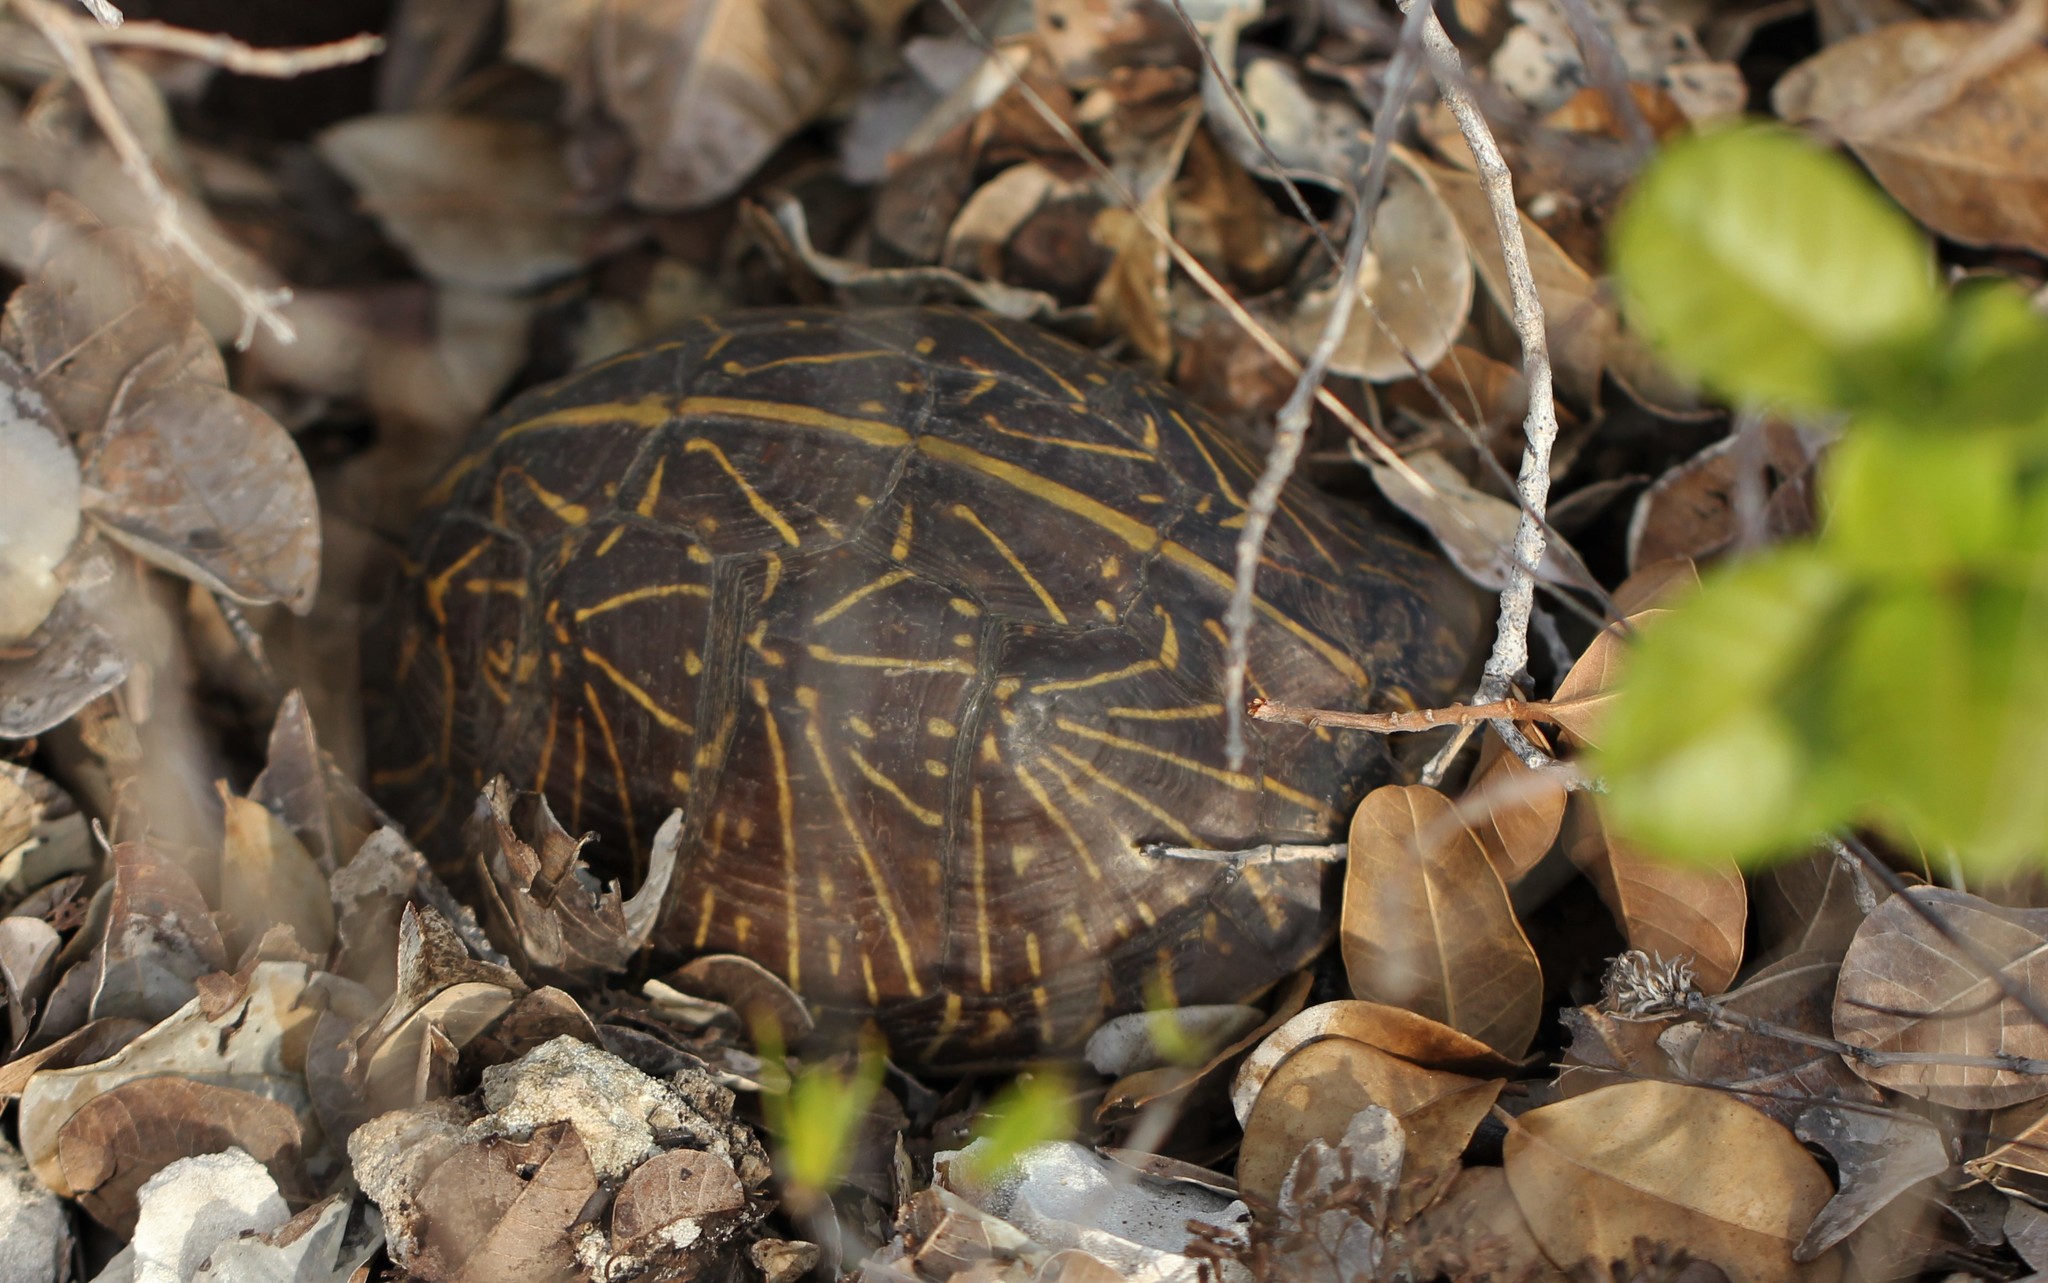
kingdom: Animalia
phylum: Chordata
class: Testudines
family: Emydidae
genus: Terrapene
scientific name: Terrapene carolina
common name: Common box turtle
